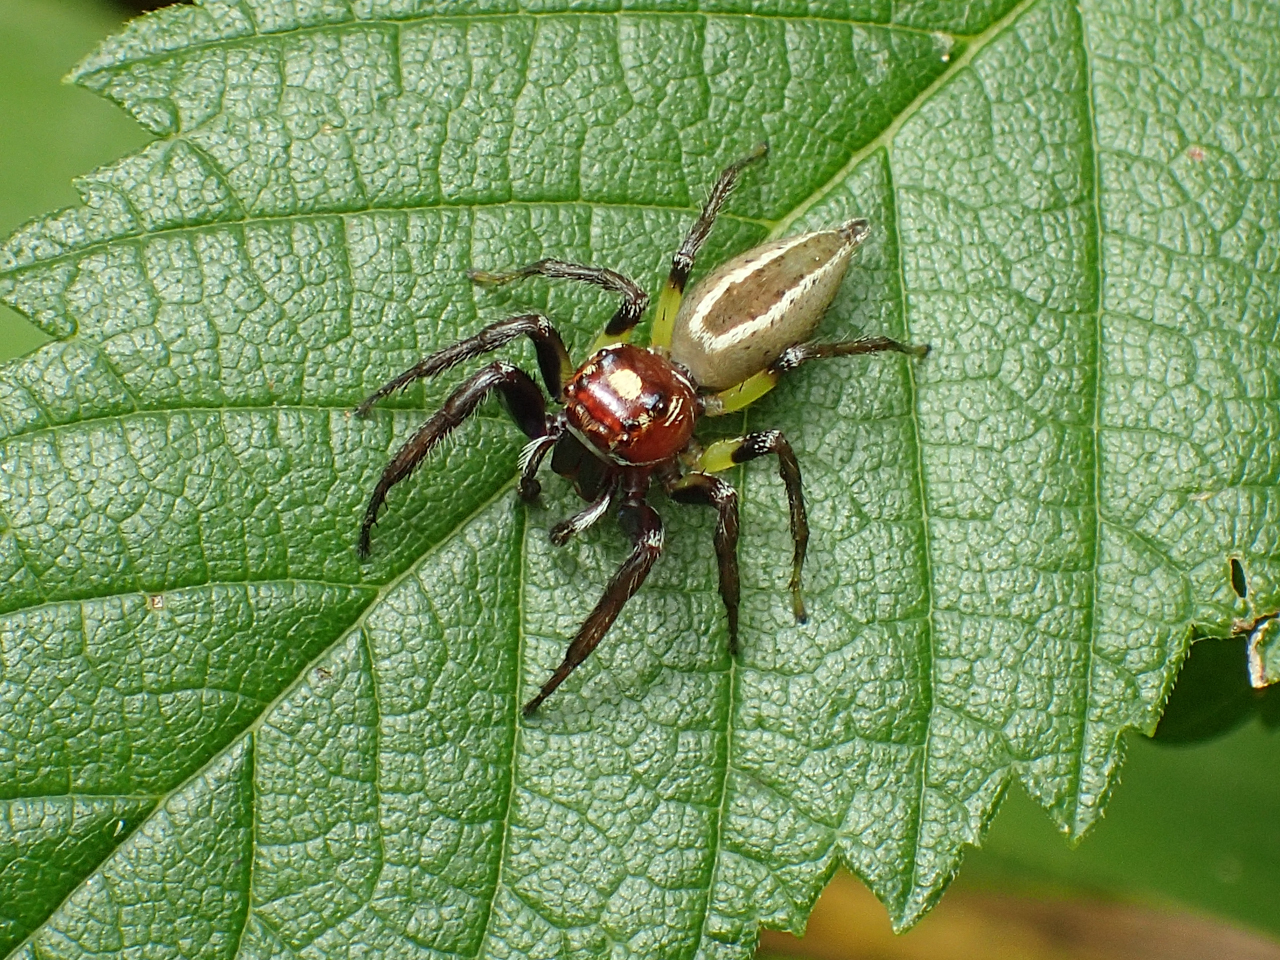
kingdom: Animalia
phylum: Arthropoda
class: Arachnida
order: Araneae
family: Salticidae
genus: Colonus
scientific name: Colonus sylvanus
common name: Jumping spiders
